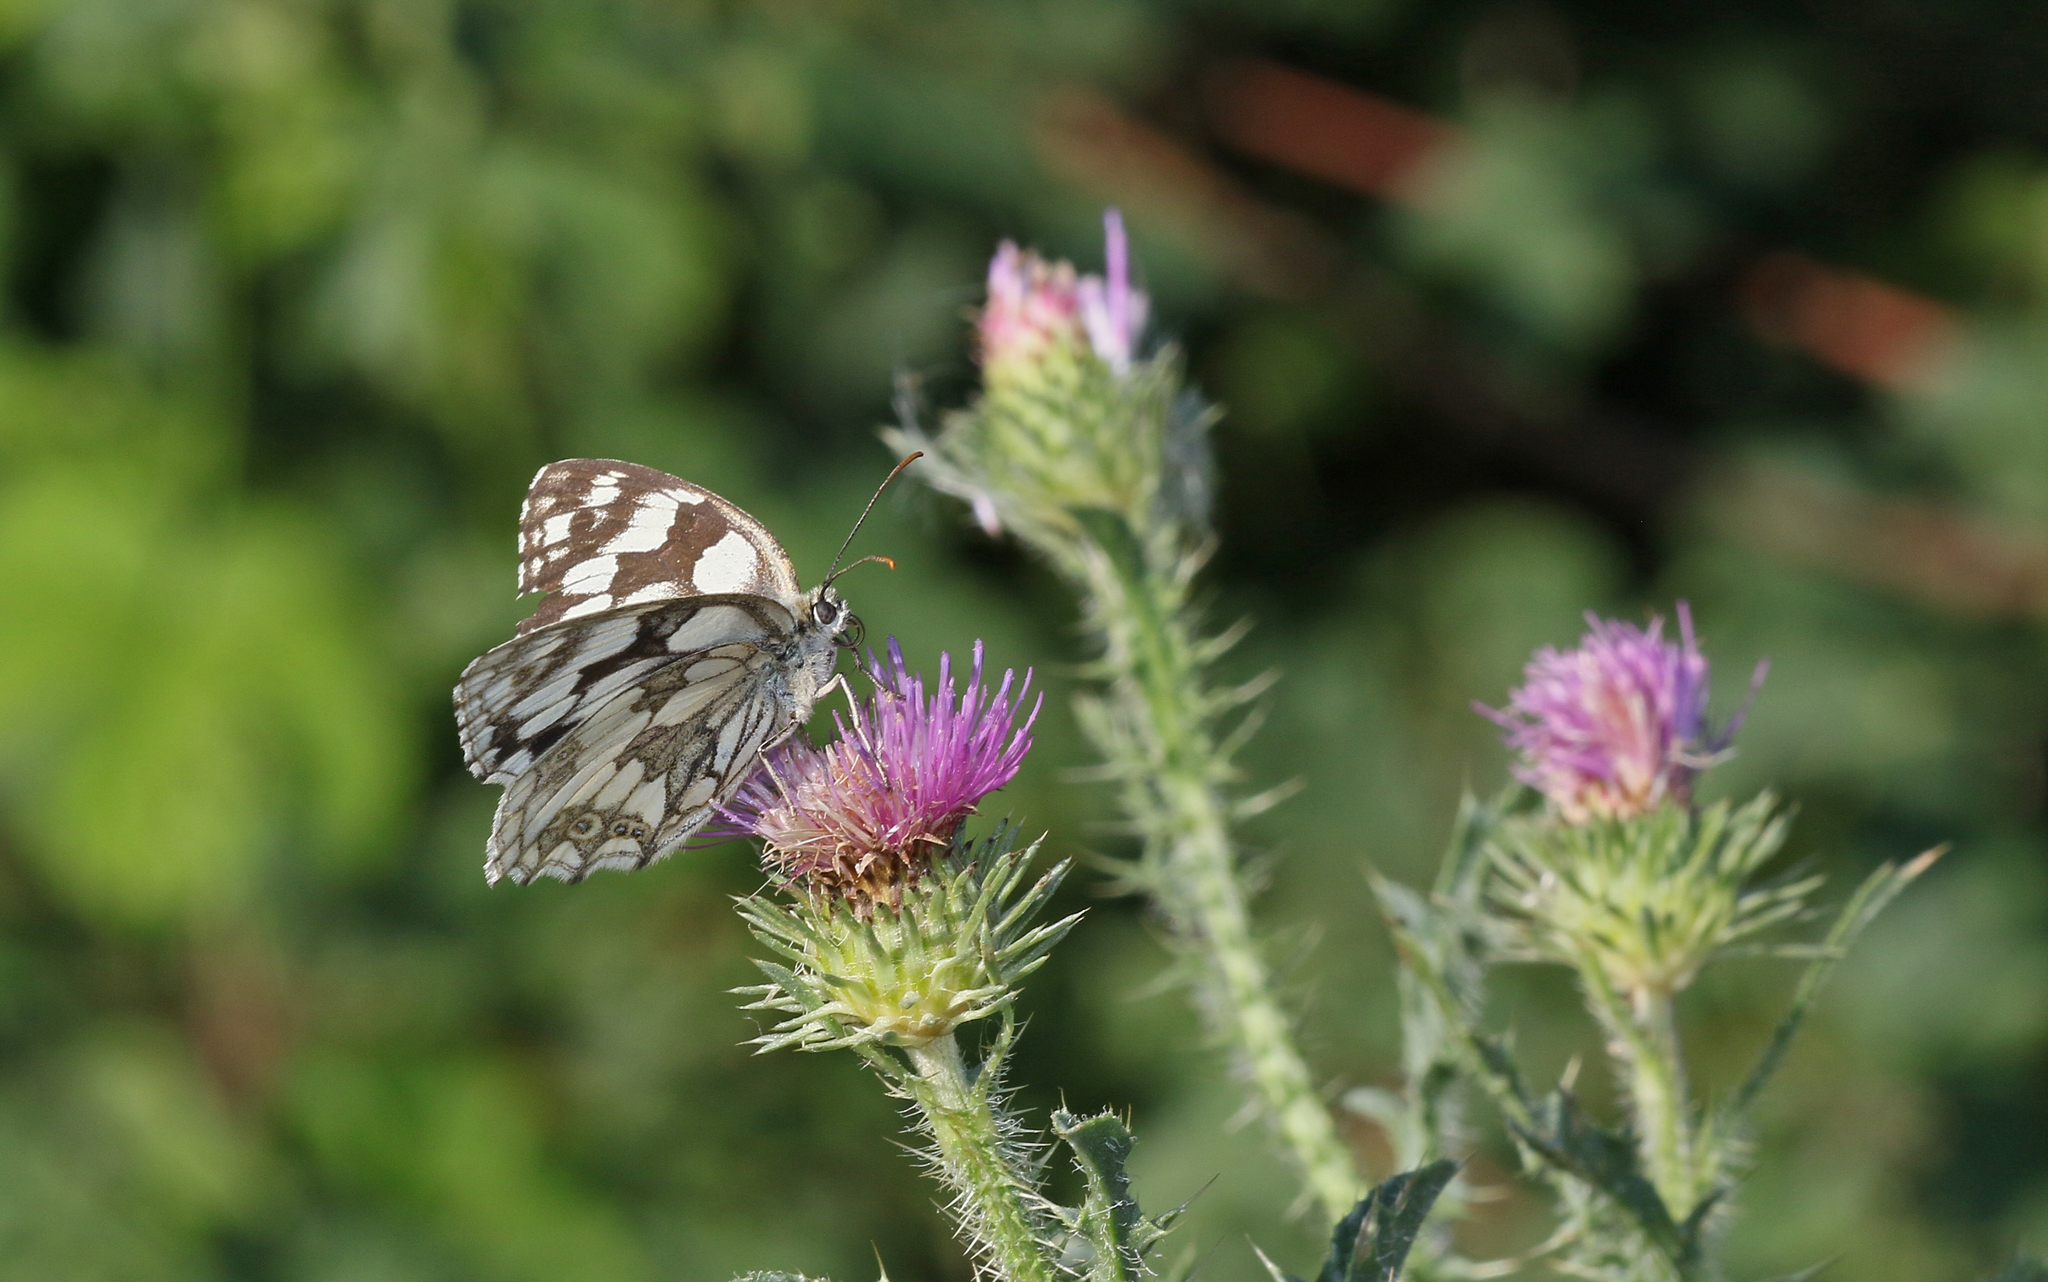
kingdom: Animalia
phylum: Arthropoda
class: Insecta
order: Lepidoptera
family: Nymphalidae
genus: Melanargia
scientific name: Melanargia galathea
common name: Marbled white
